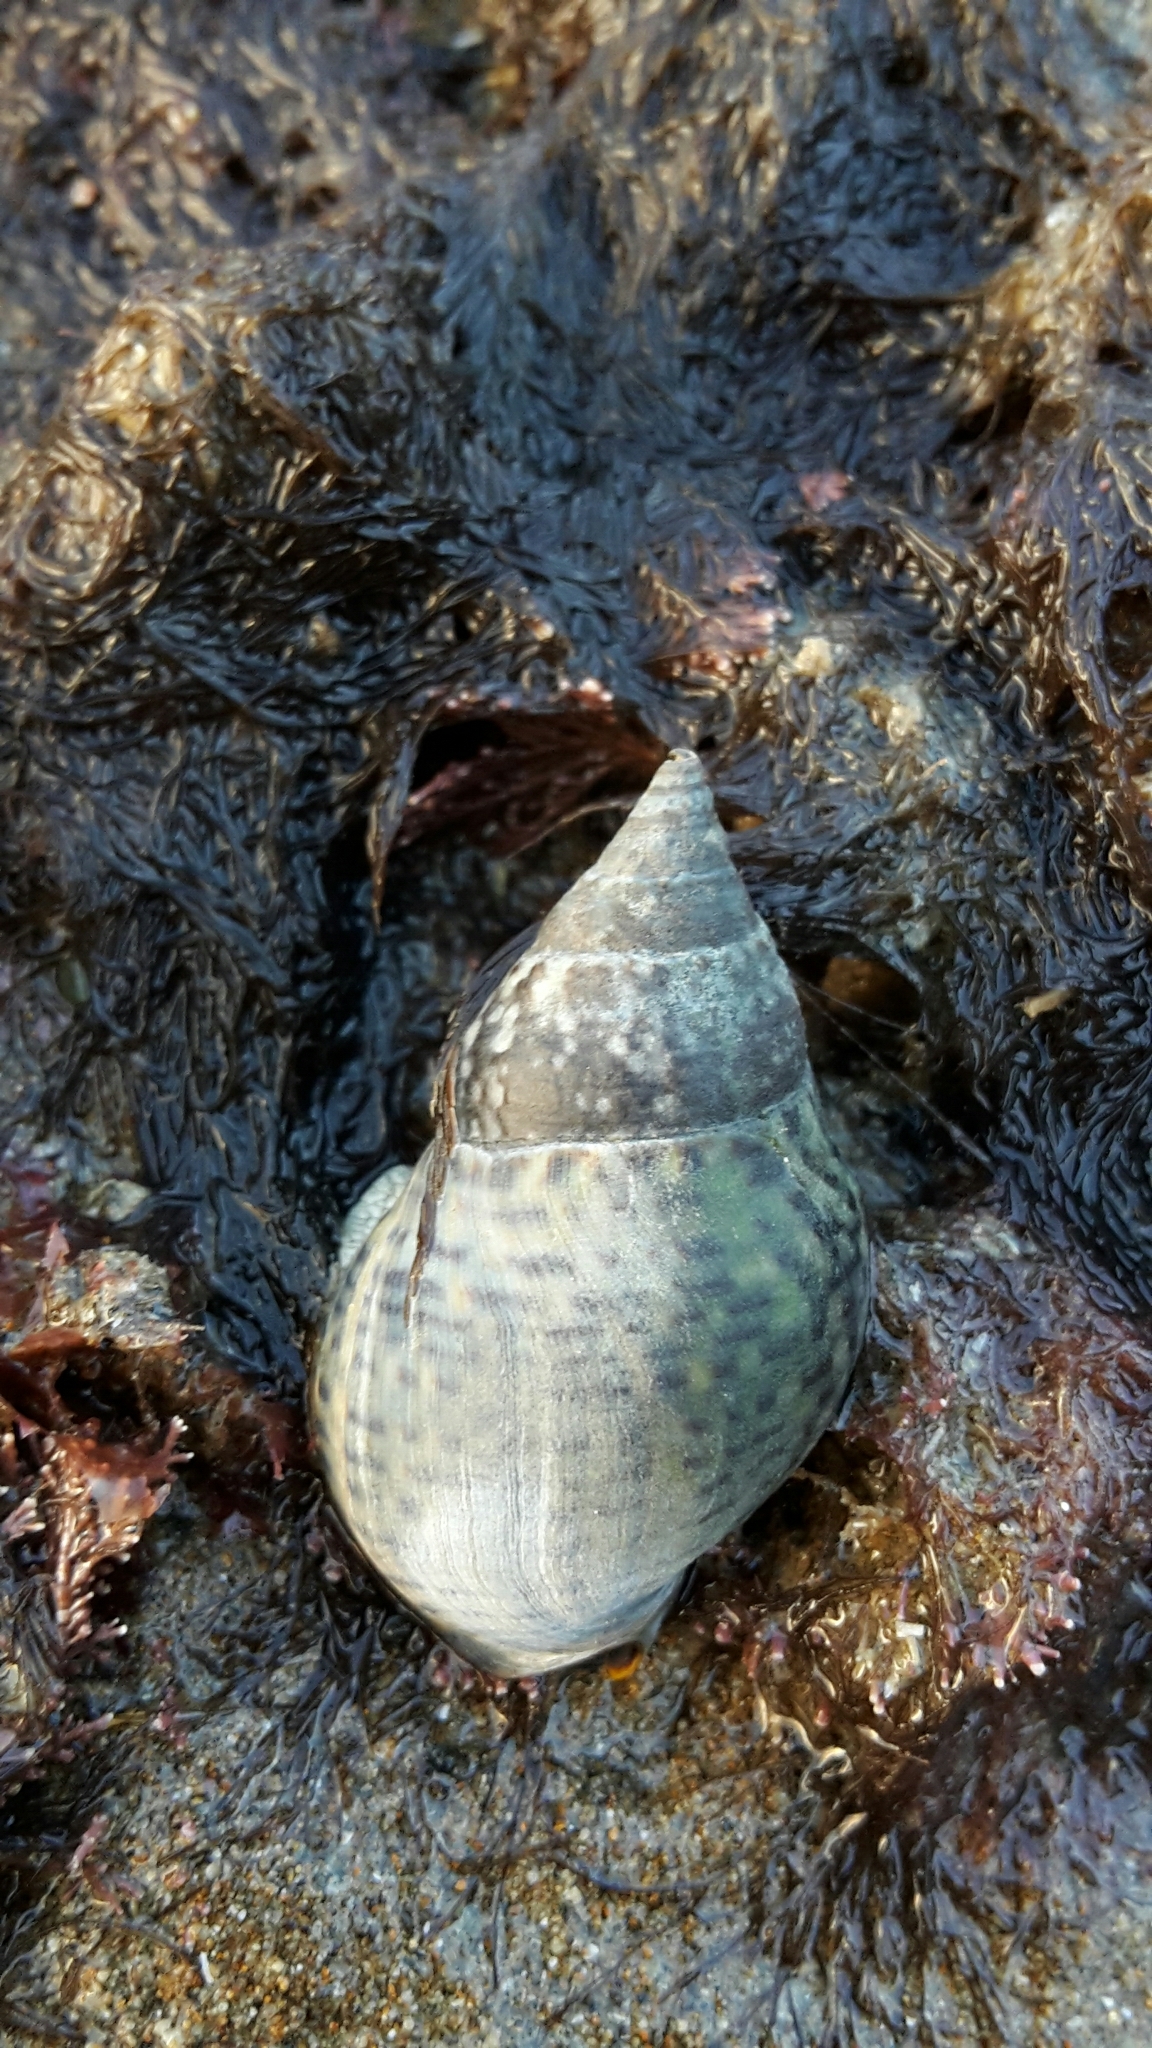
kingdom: Animalia
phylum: Mollusca
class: Gastropoda
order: Neogastropoda
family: Cominellidae
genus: Cominella
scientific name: Cominella maculosa
